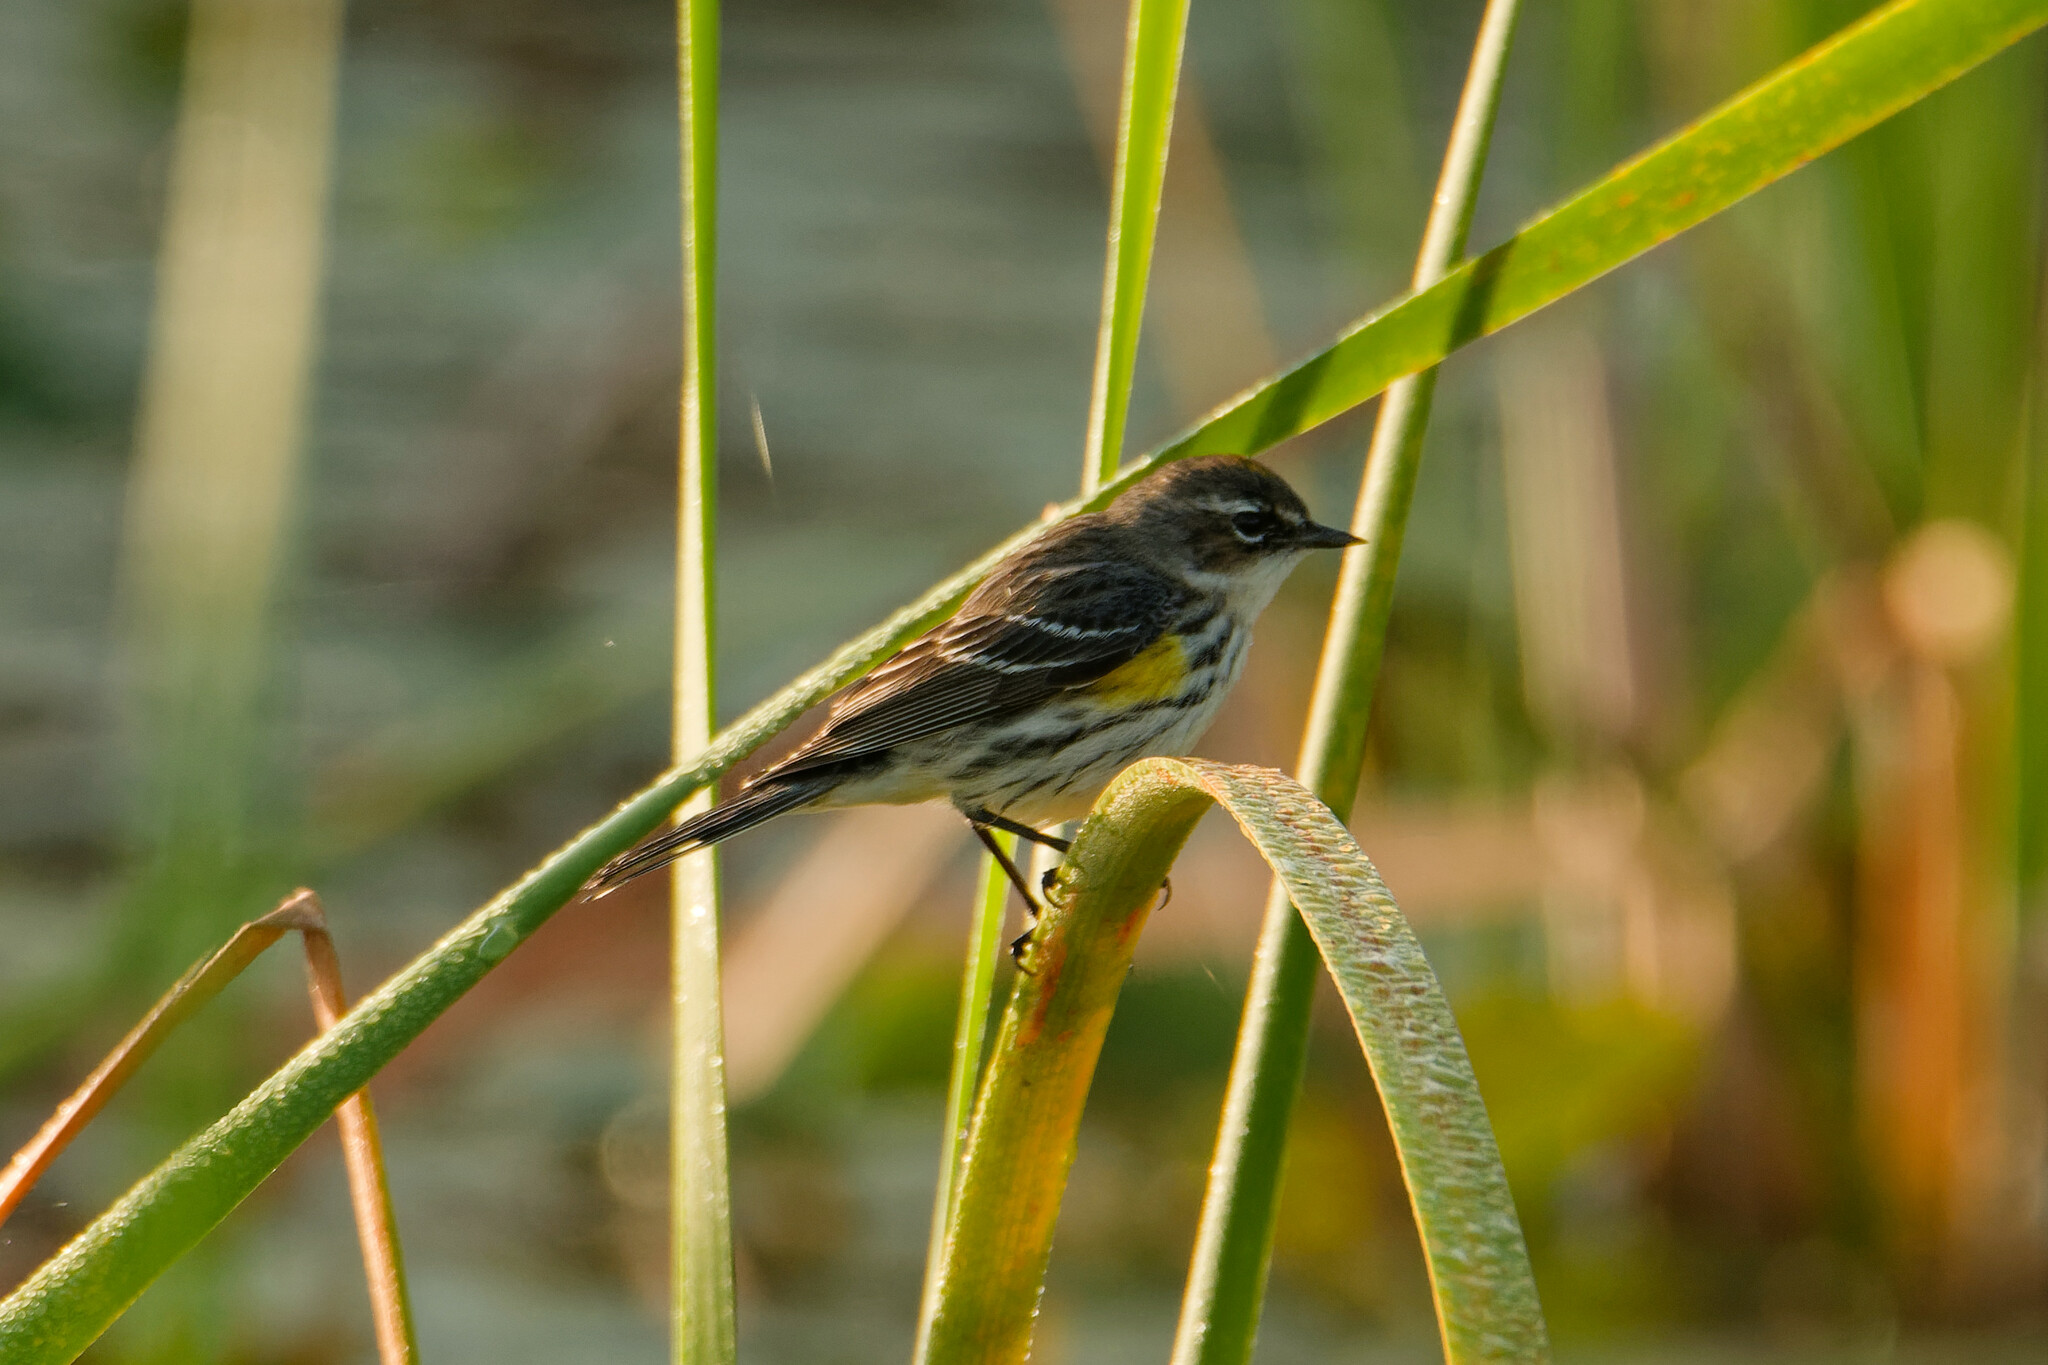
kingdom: Animalia
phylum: Chordata
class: Aves
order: Passeriformes
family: Parulidae
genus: Setophaga
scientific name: Setophaga coronata
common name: Myrtle warbler
